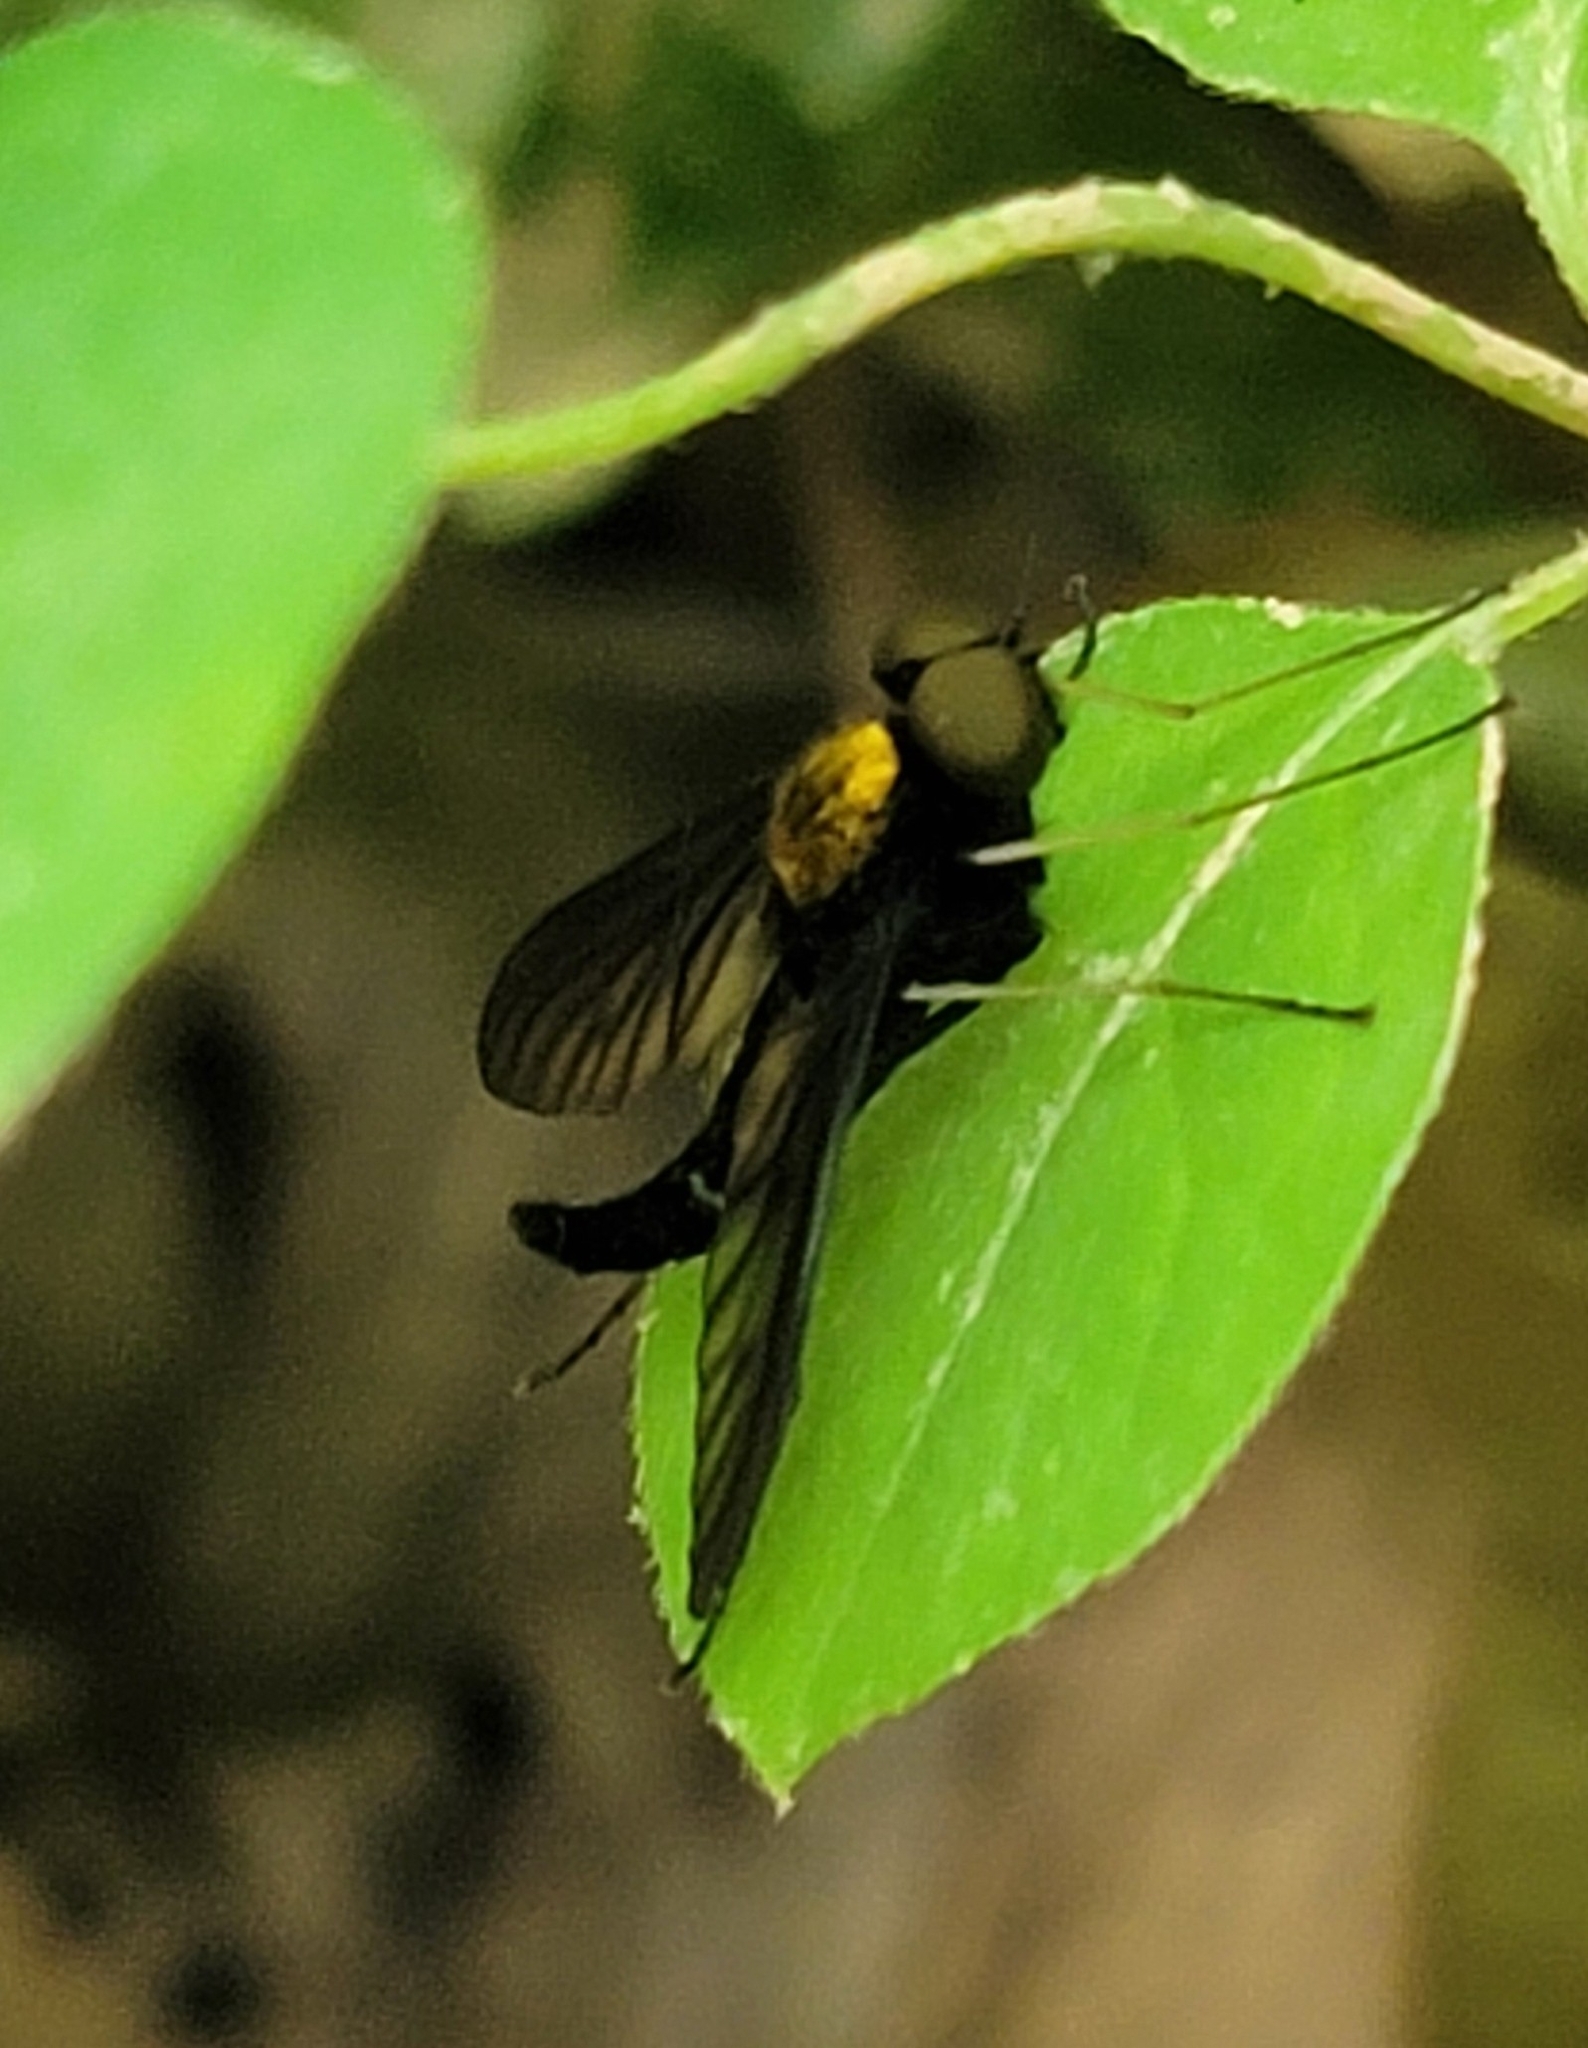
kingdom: Animalia
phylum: Arthropoda
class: Insecta
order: Diptera
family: Rhagionidae
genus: Chrysopilus
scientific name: Chrysopilus thoracicus
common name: Golden-backed snipe fly
